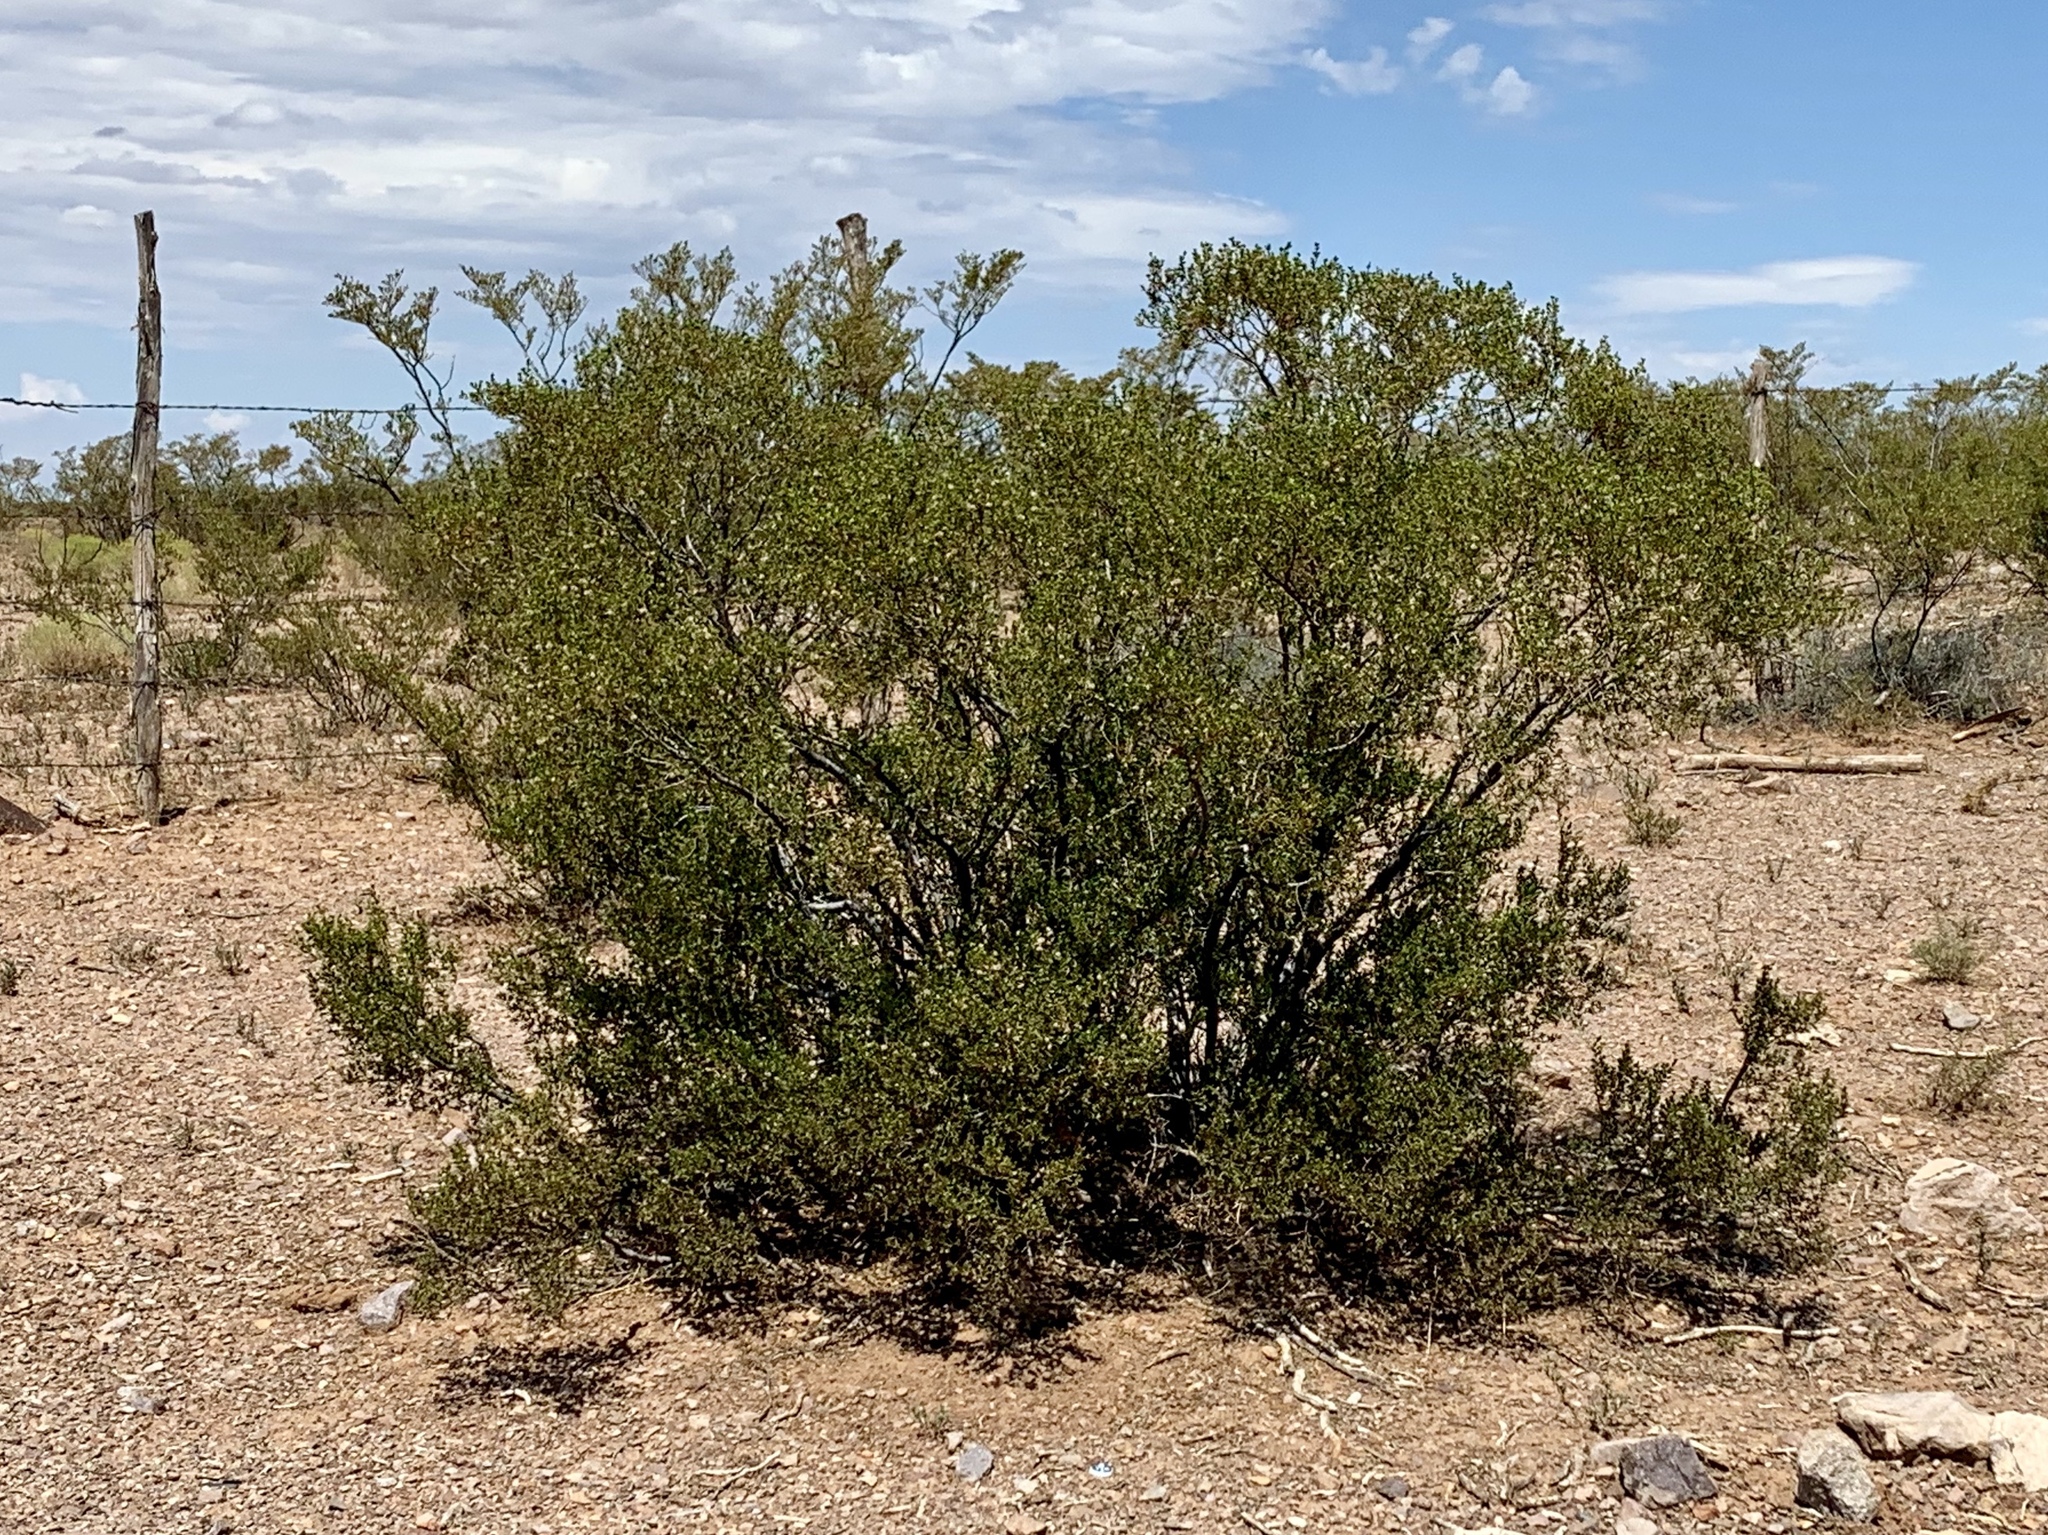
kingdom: Plantae
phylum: Tracheophyta
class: Magnoliopsida
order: Zygophyllales
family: Zygophyllaceae
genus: Larrea
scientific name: Larrea tridentata
